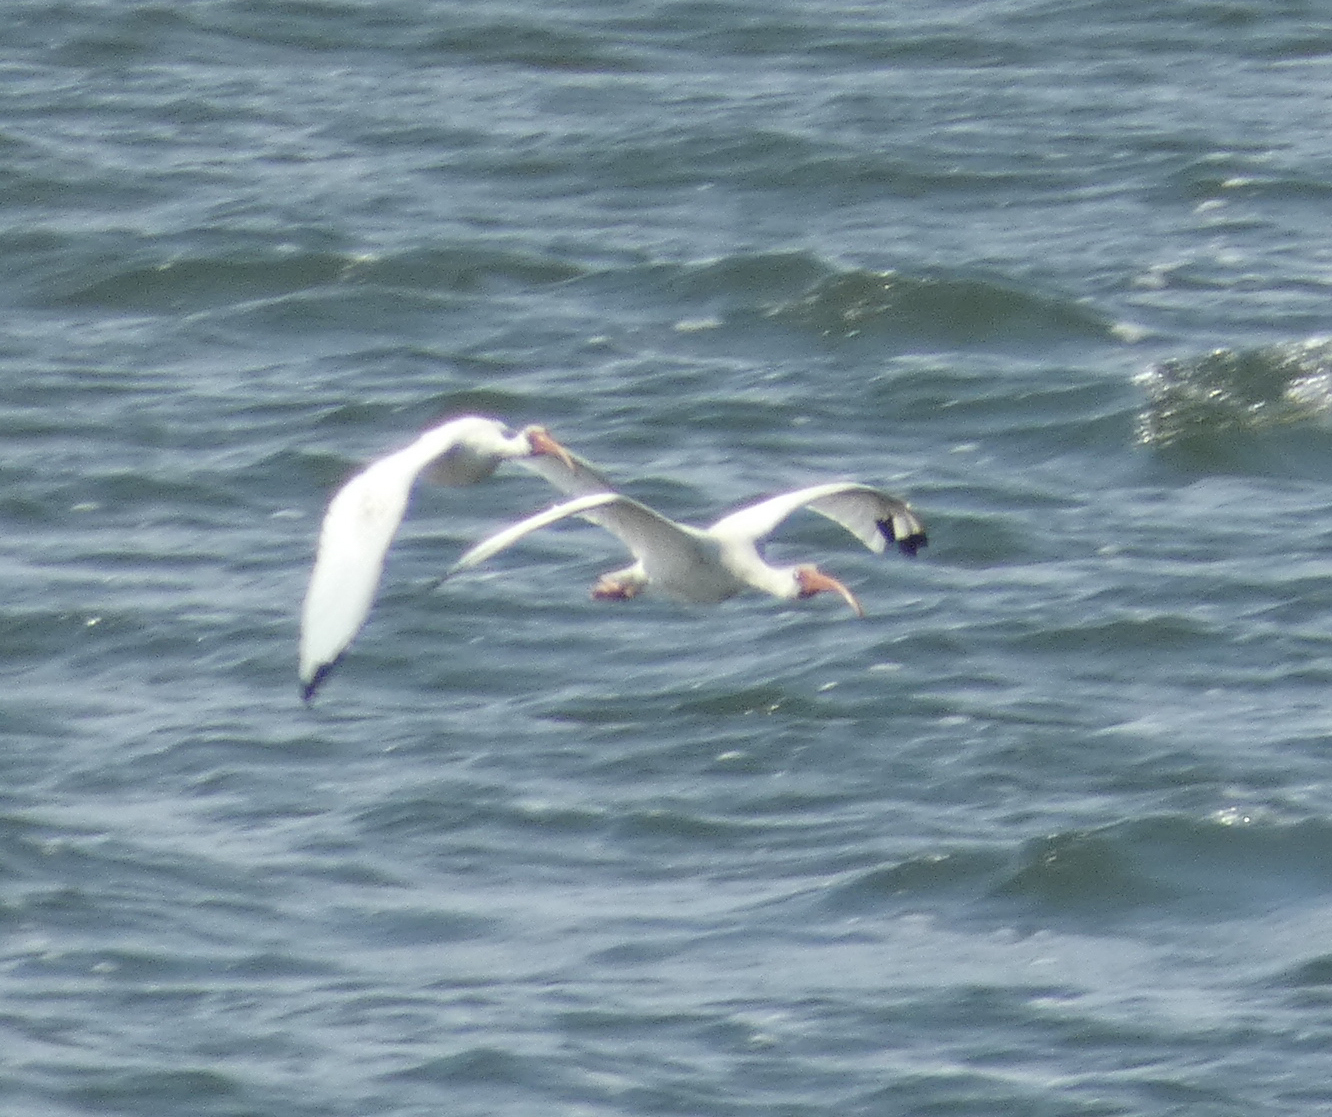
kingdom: Animalia
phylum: Chordata
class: Aves
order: Pelecaniformes
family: Threskiornithidae
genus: Eudocimus
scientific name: Eudocimus albus
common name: White ibis
